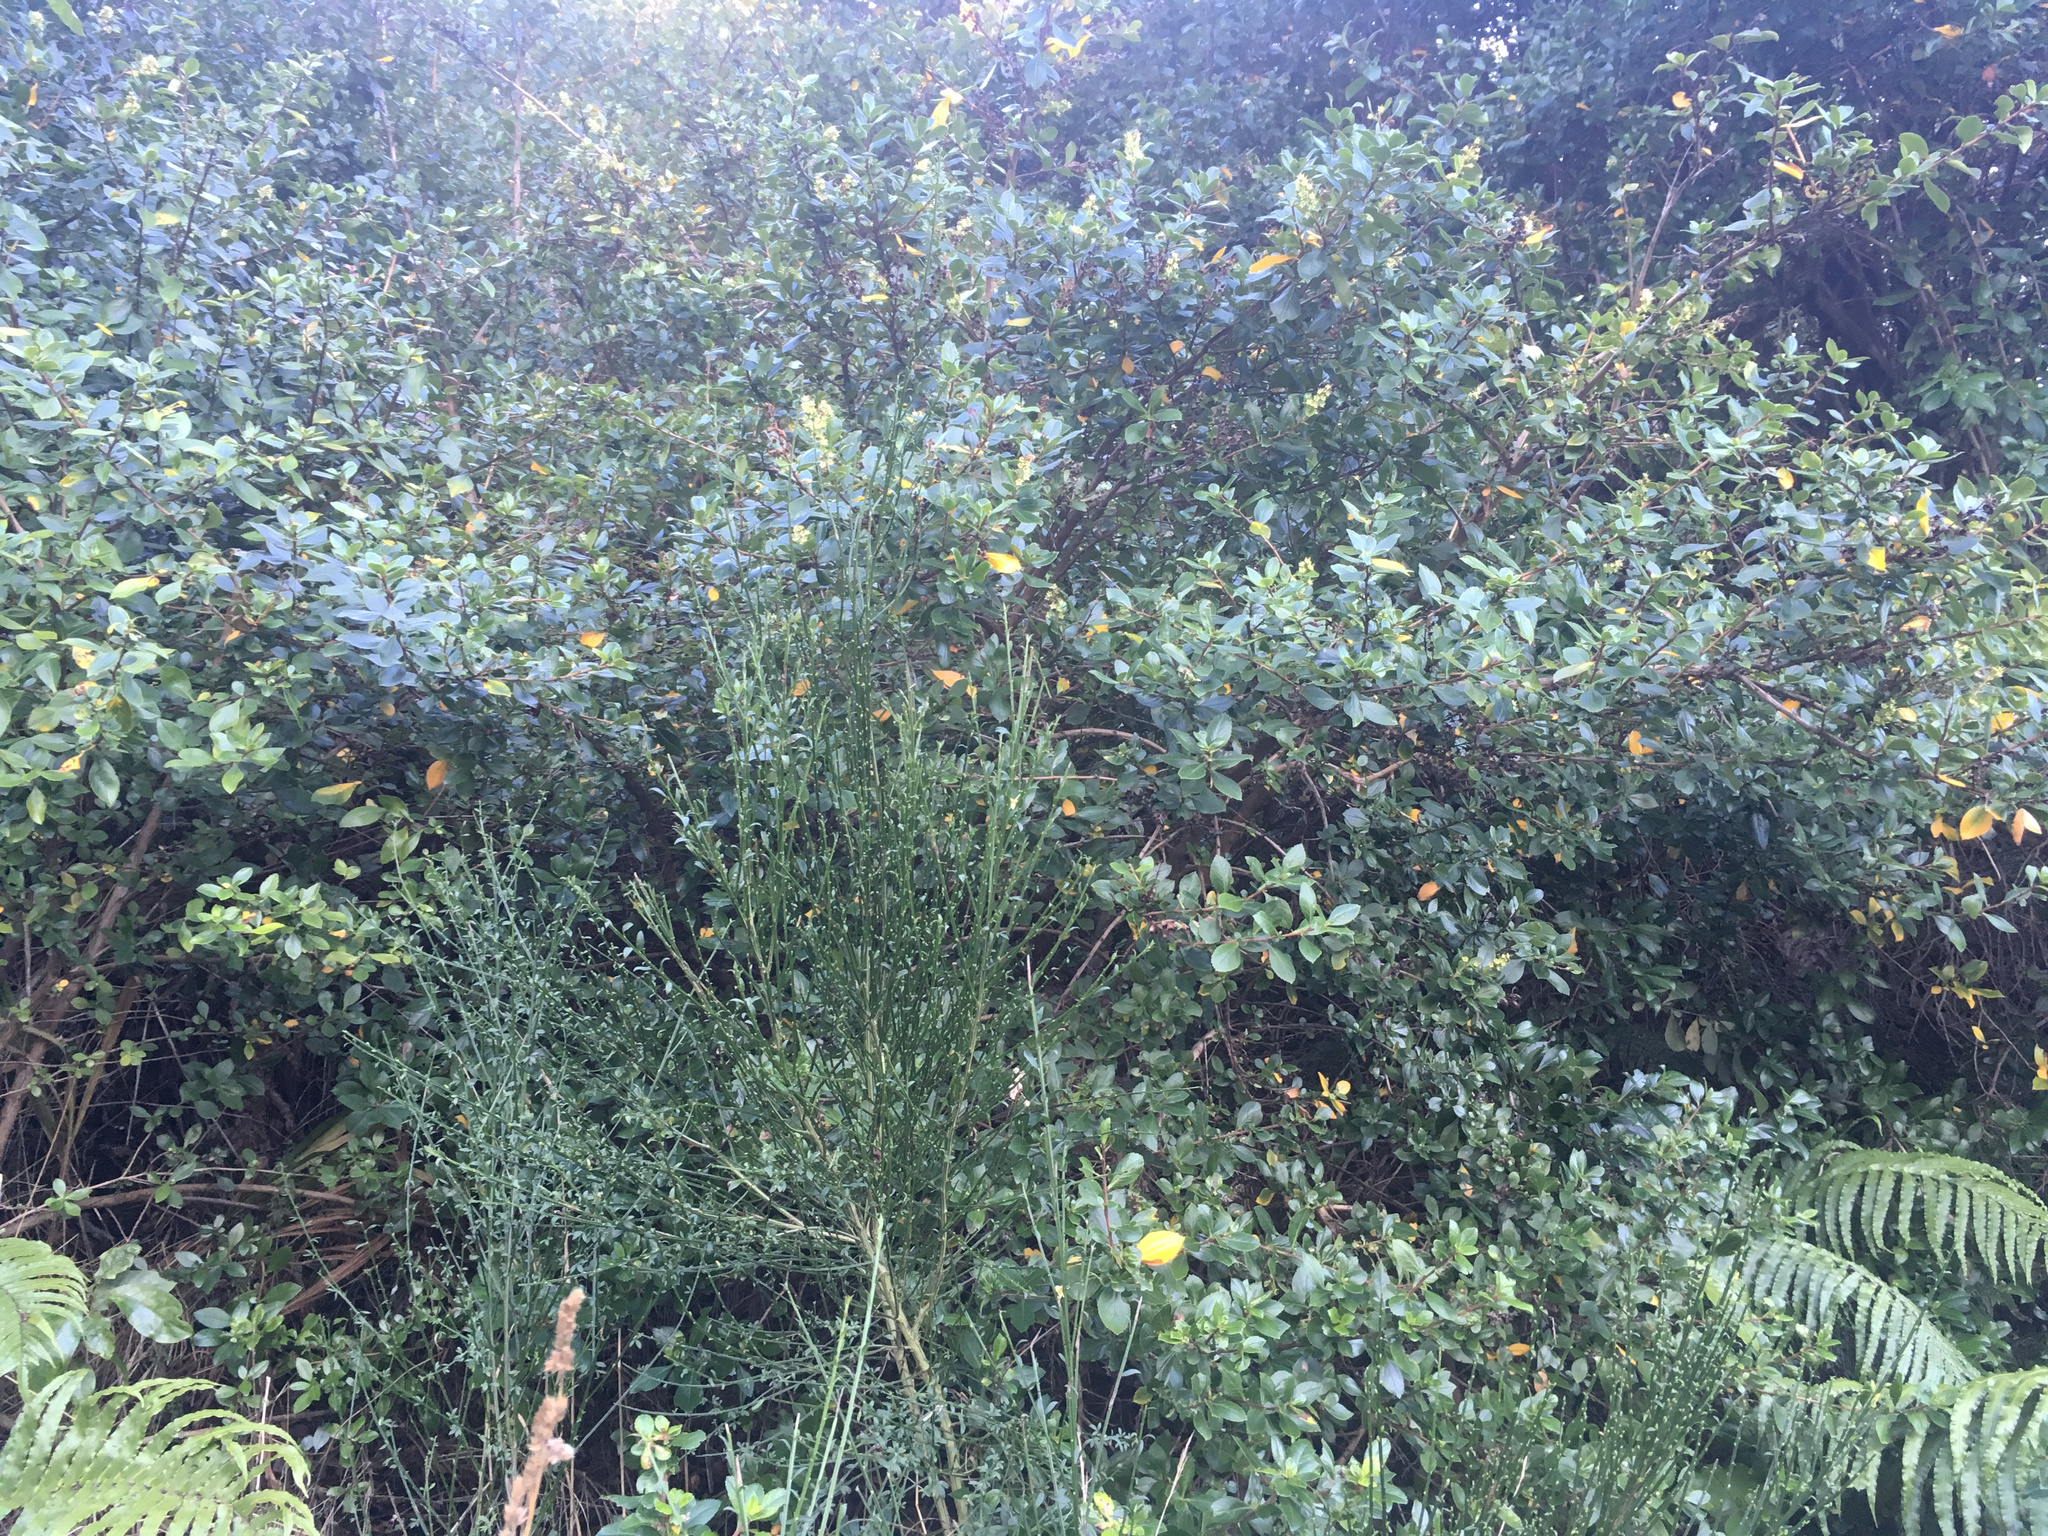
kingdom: Plantae
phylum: Tracheophyta
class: Magnoliopsida
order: Fabales
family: Fabaceae
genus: Cytisus
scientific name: Cytisus scoparius
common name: Scotch broom
